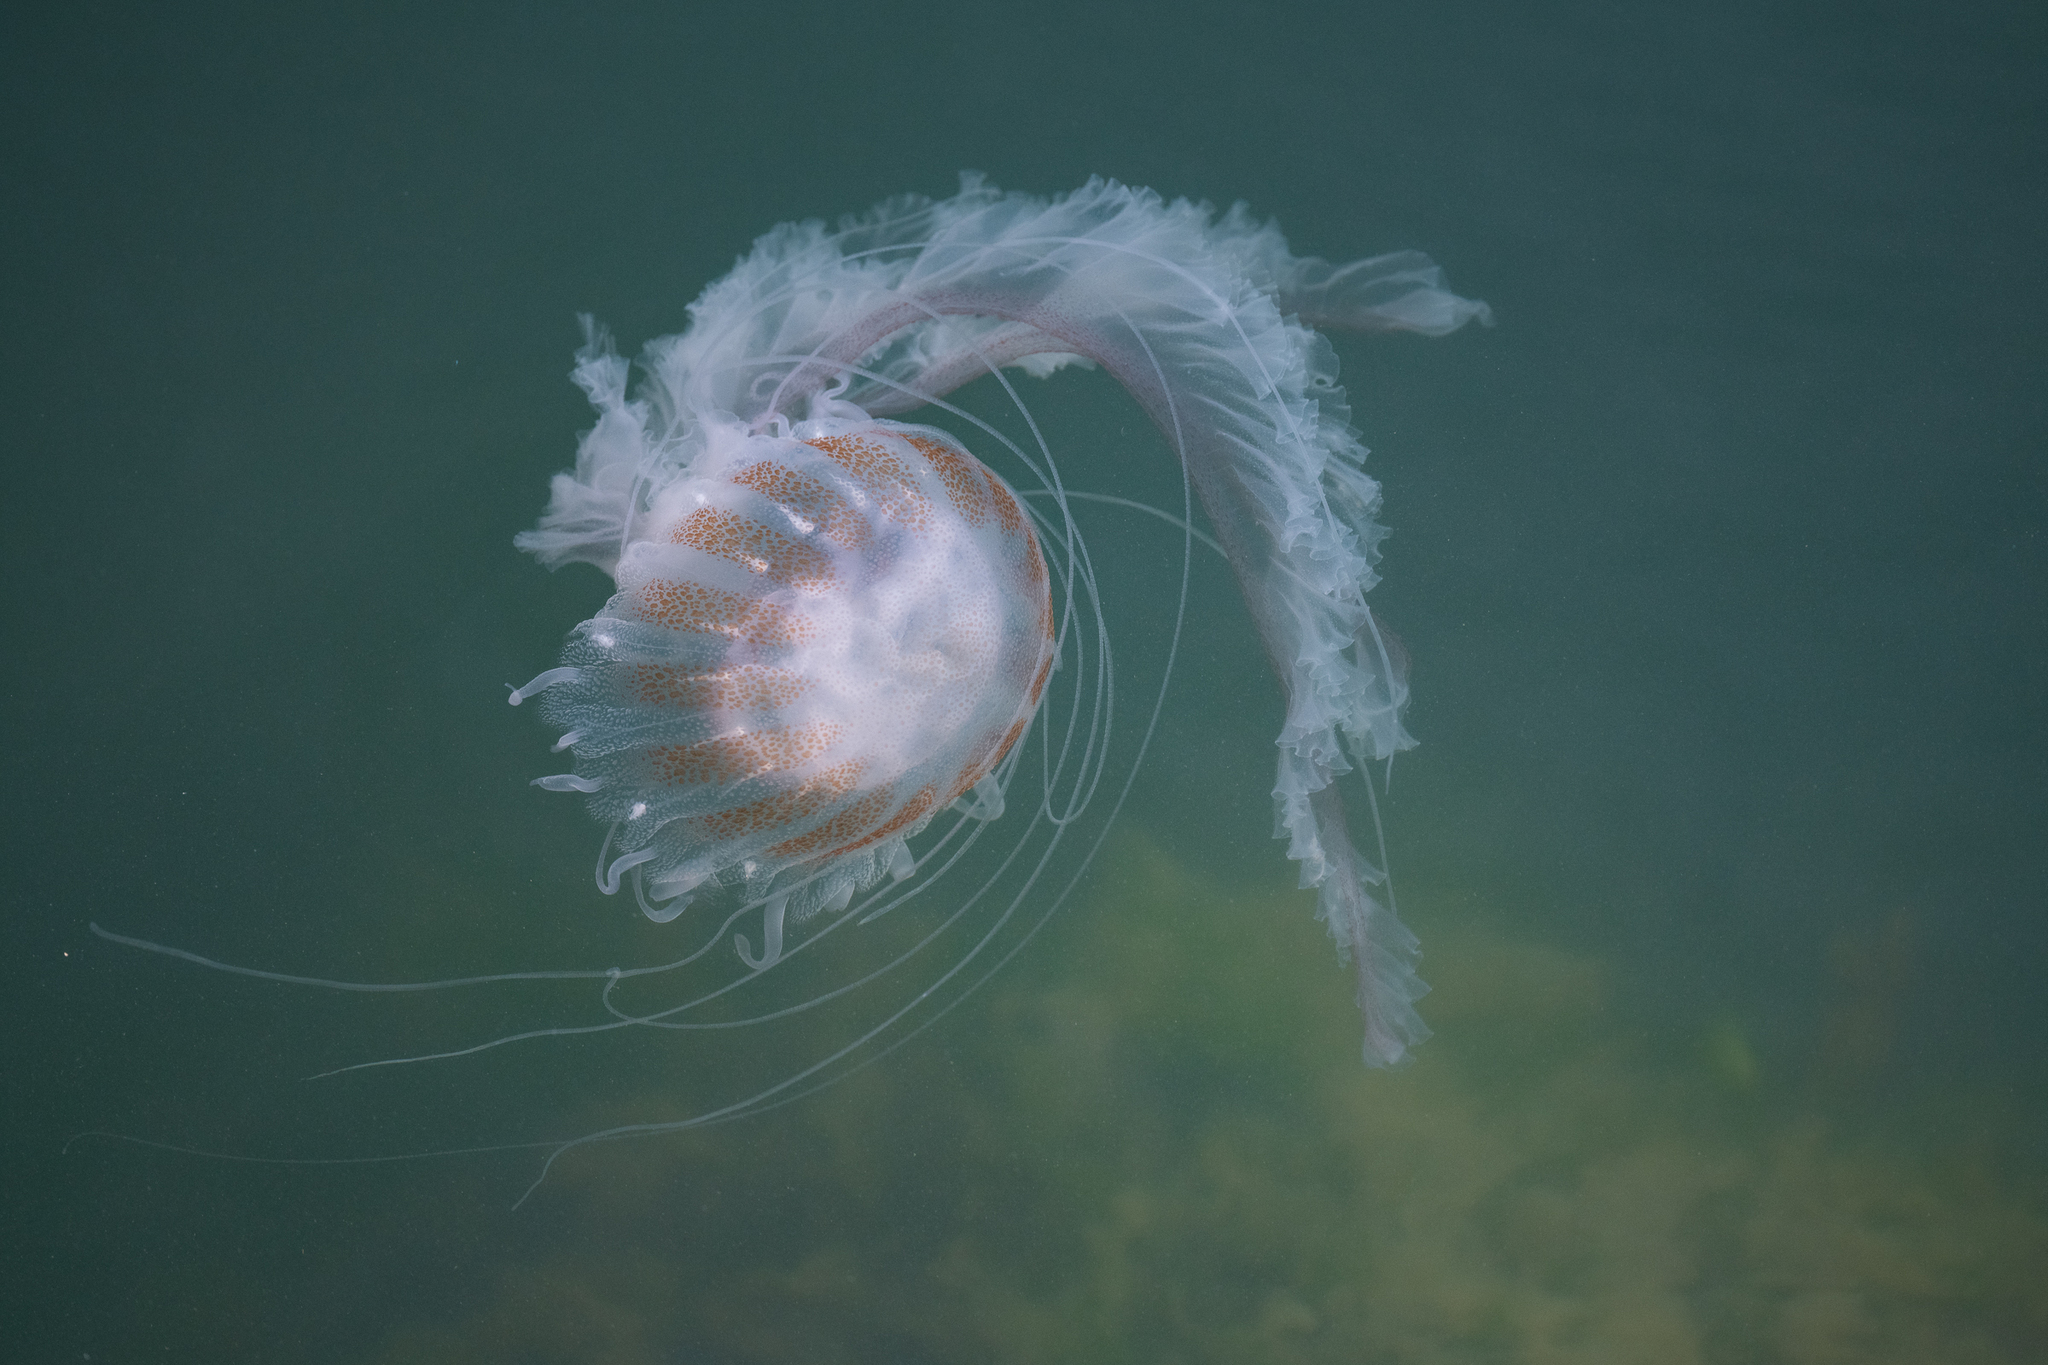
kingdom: Animalia
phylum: Cnidaria
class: Scyphozoa
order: Semaeostomeae
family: Pelagiidae
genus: Chrysaora
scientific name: Chrysaora chesapeakei
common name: Bay nettle
